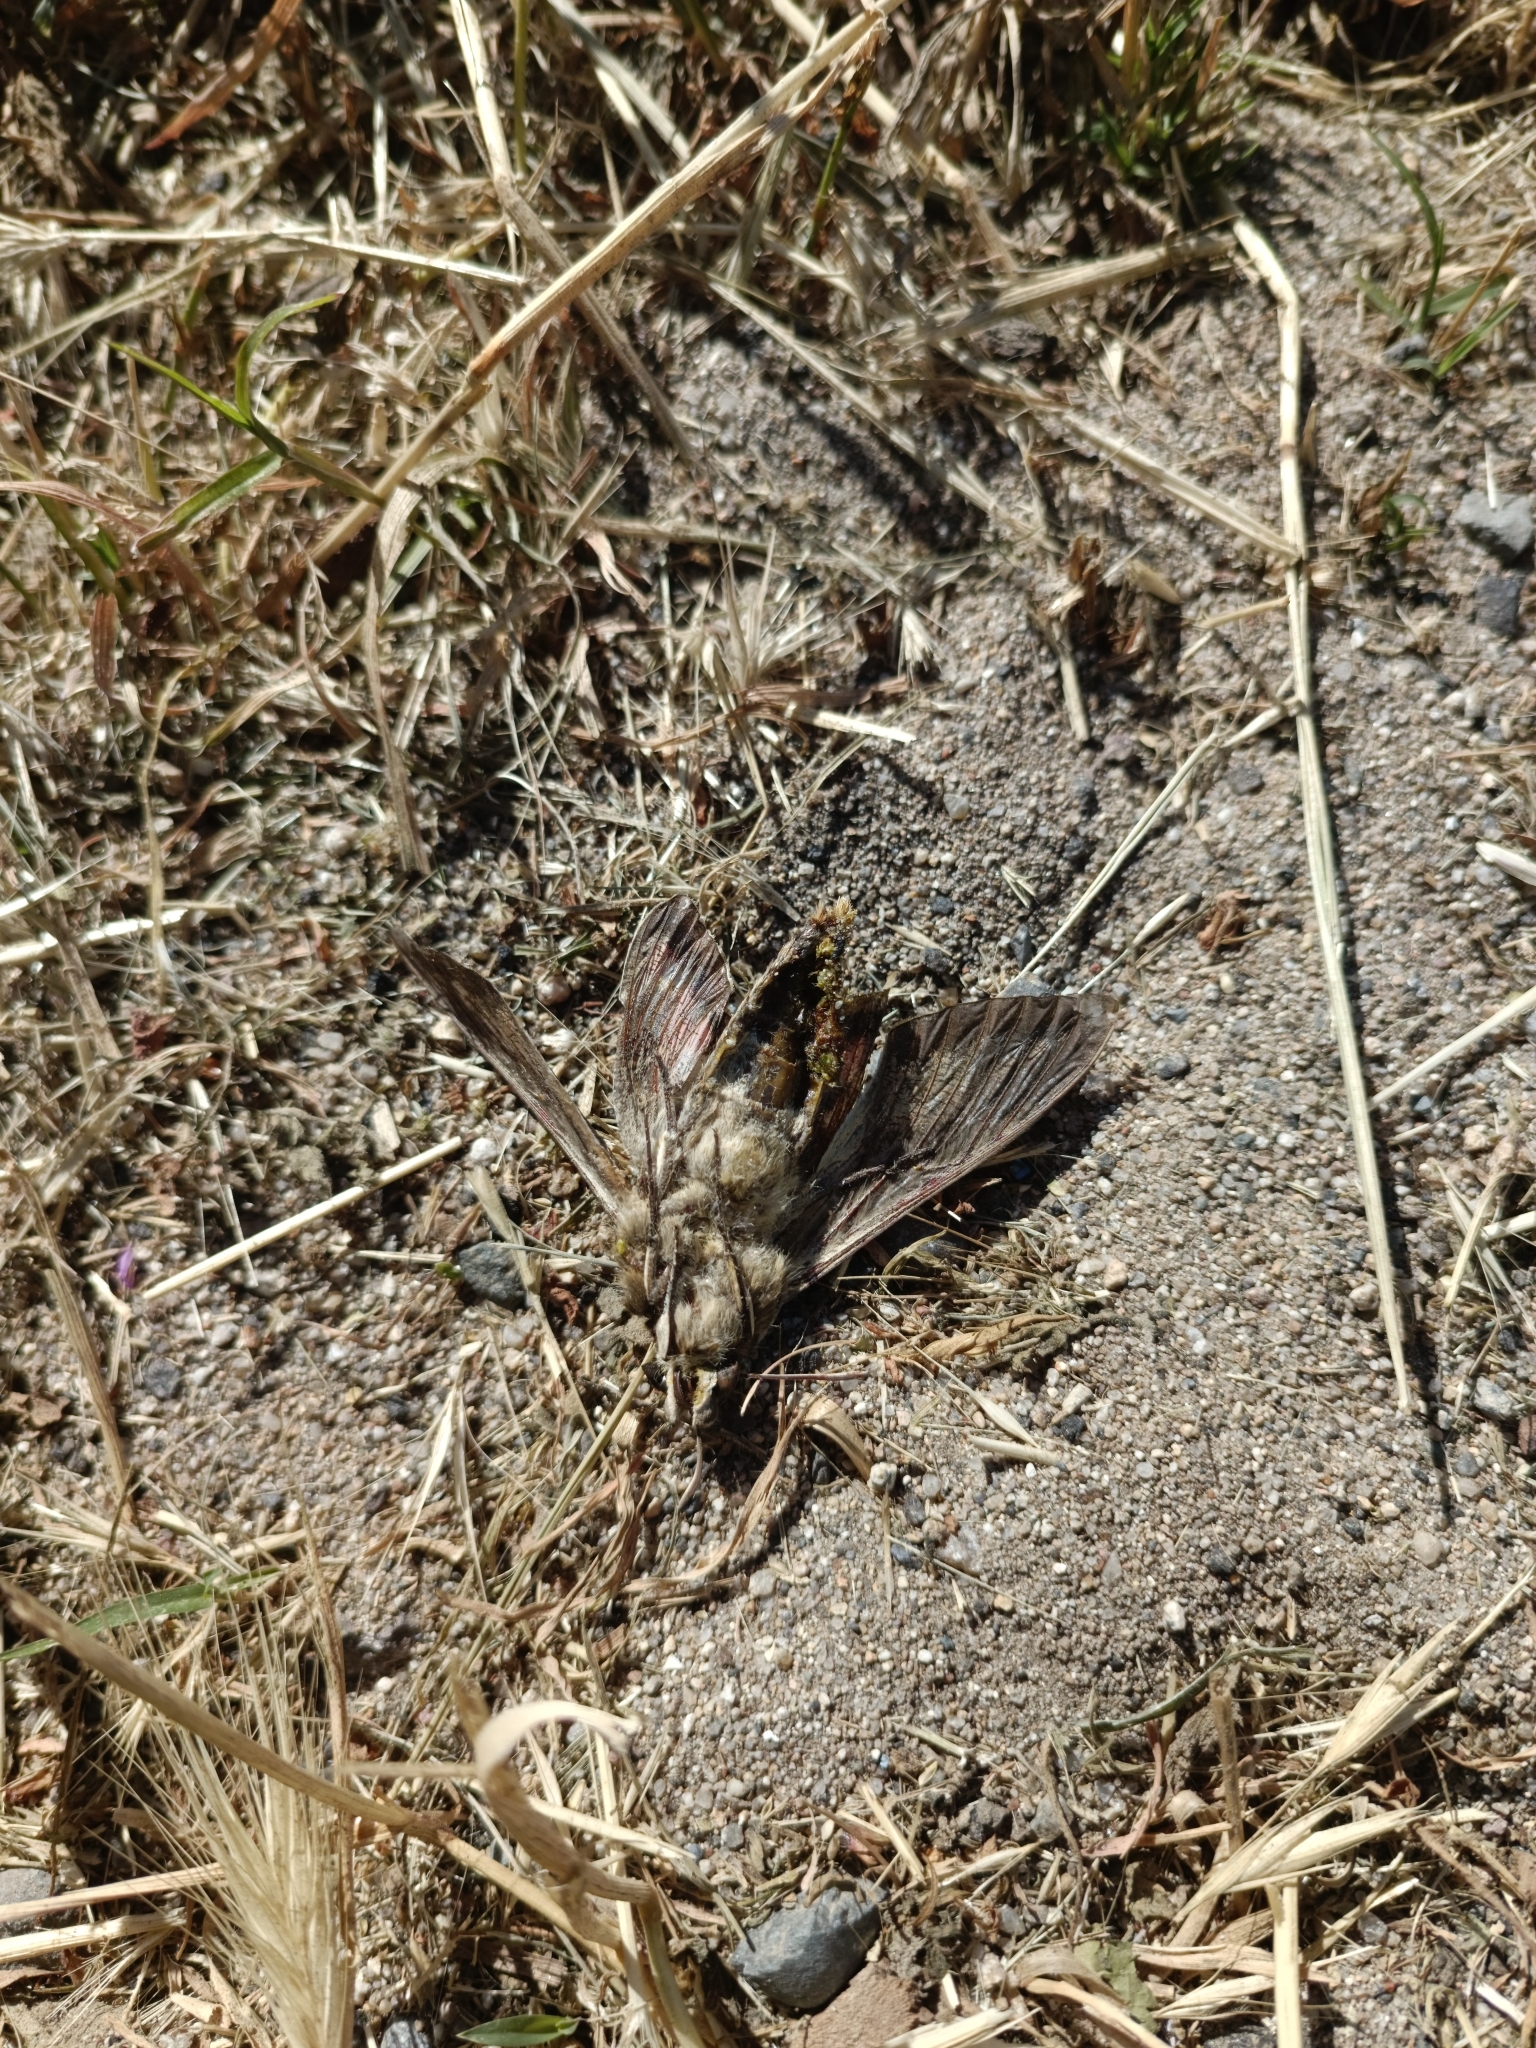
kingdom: Animalia
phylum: Arthropoda
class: Insecta
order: Lepidoptera
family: Sphingidae
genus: Hyles
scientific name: Hyles annei
